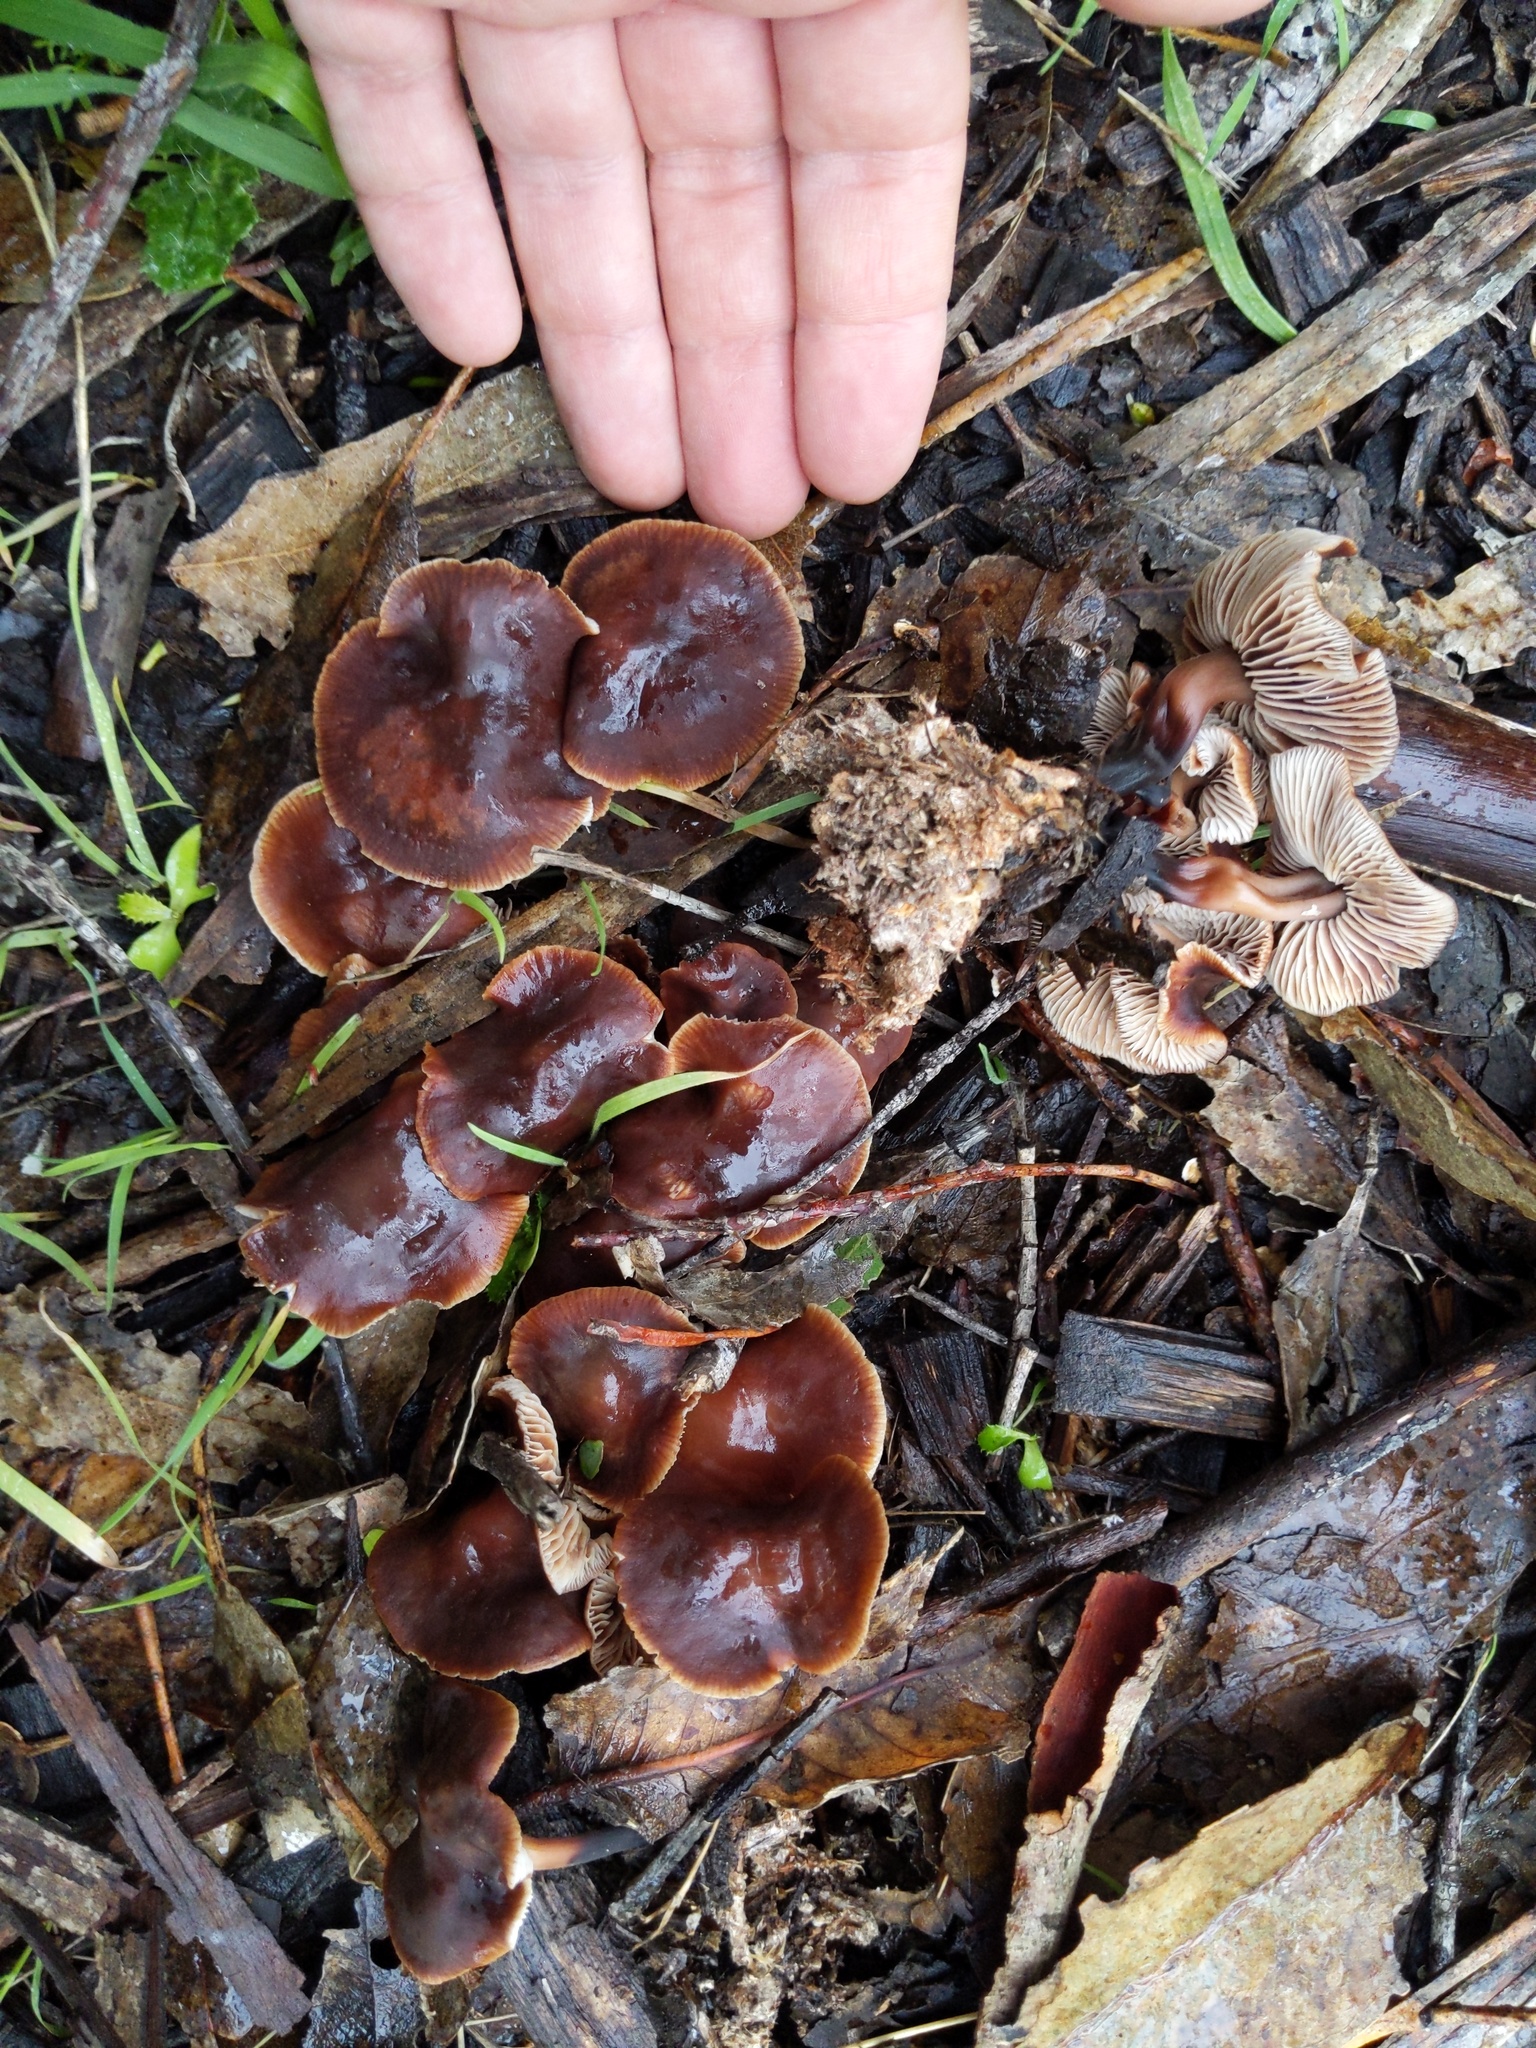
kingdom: Fungi
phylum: Basidiomycota
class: Agaricomycetes
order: Agaricales
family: Omphalotaceae
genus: Gymnopus
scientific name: Gymnopus brassicolens
